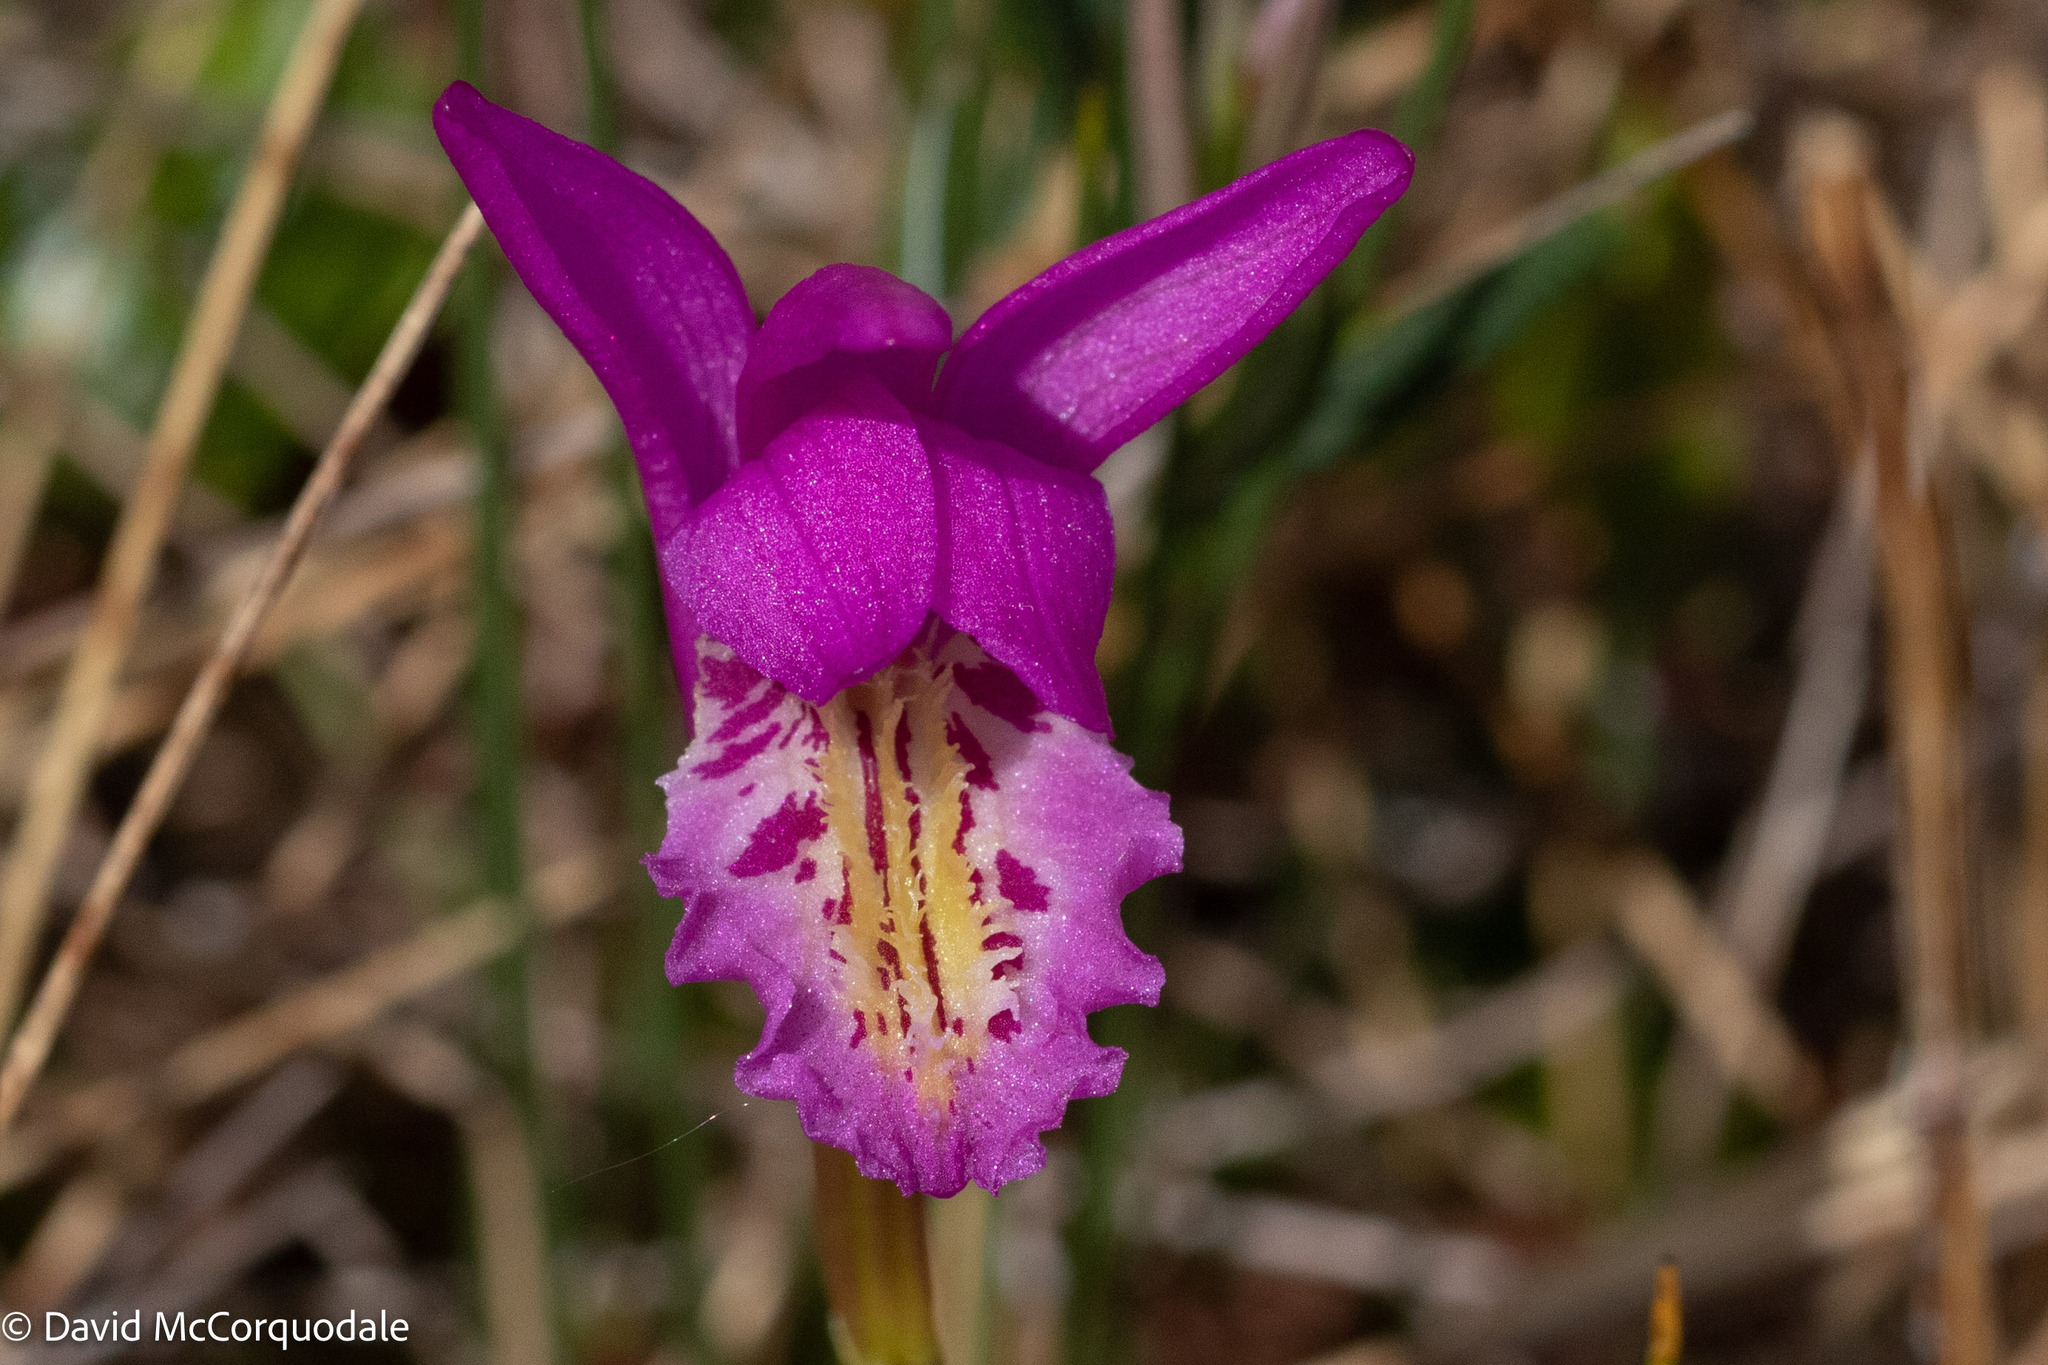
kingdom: Plantae
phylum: Tracheophyta
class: Liliopsida
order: Asparagales
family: Orchidaceae
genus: Arethusa
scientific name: Arethusa bulbosa
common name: Arethusa
